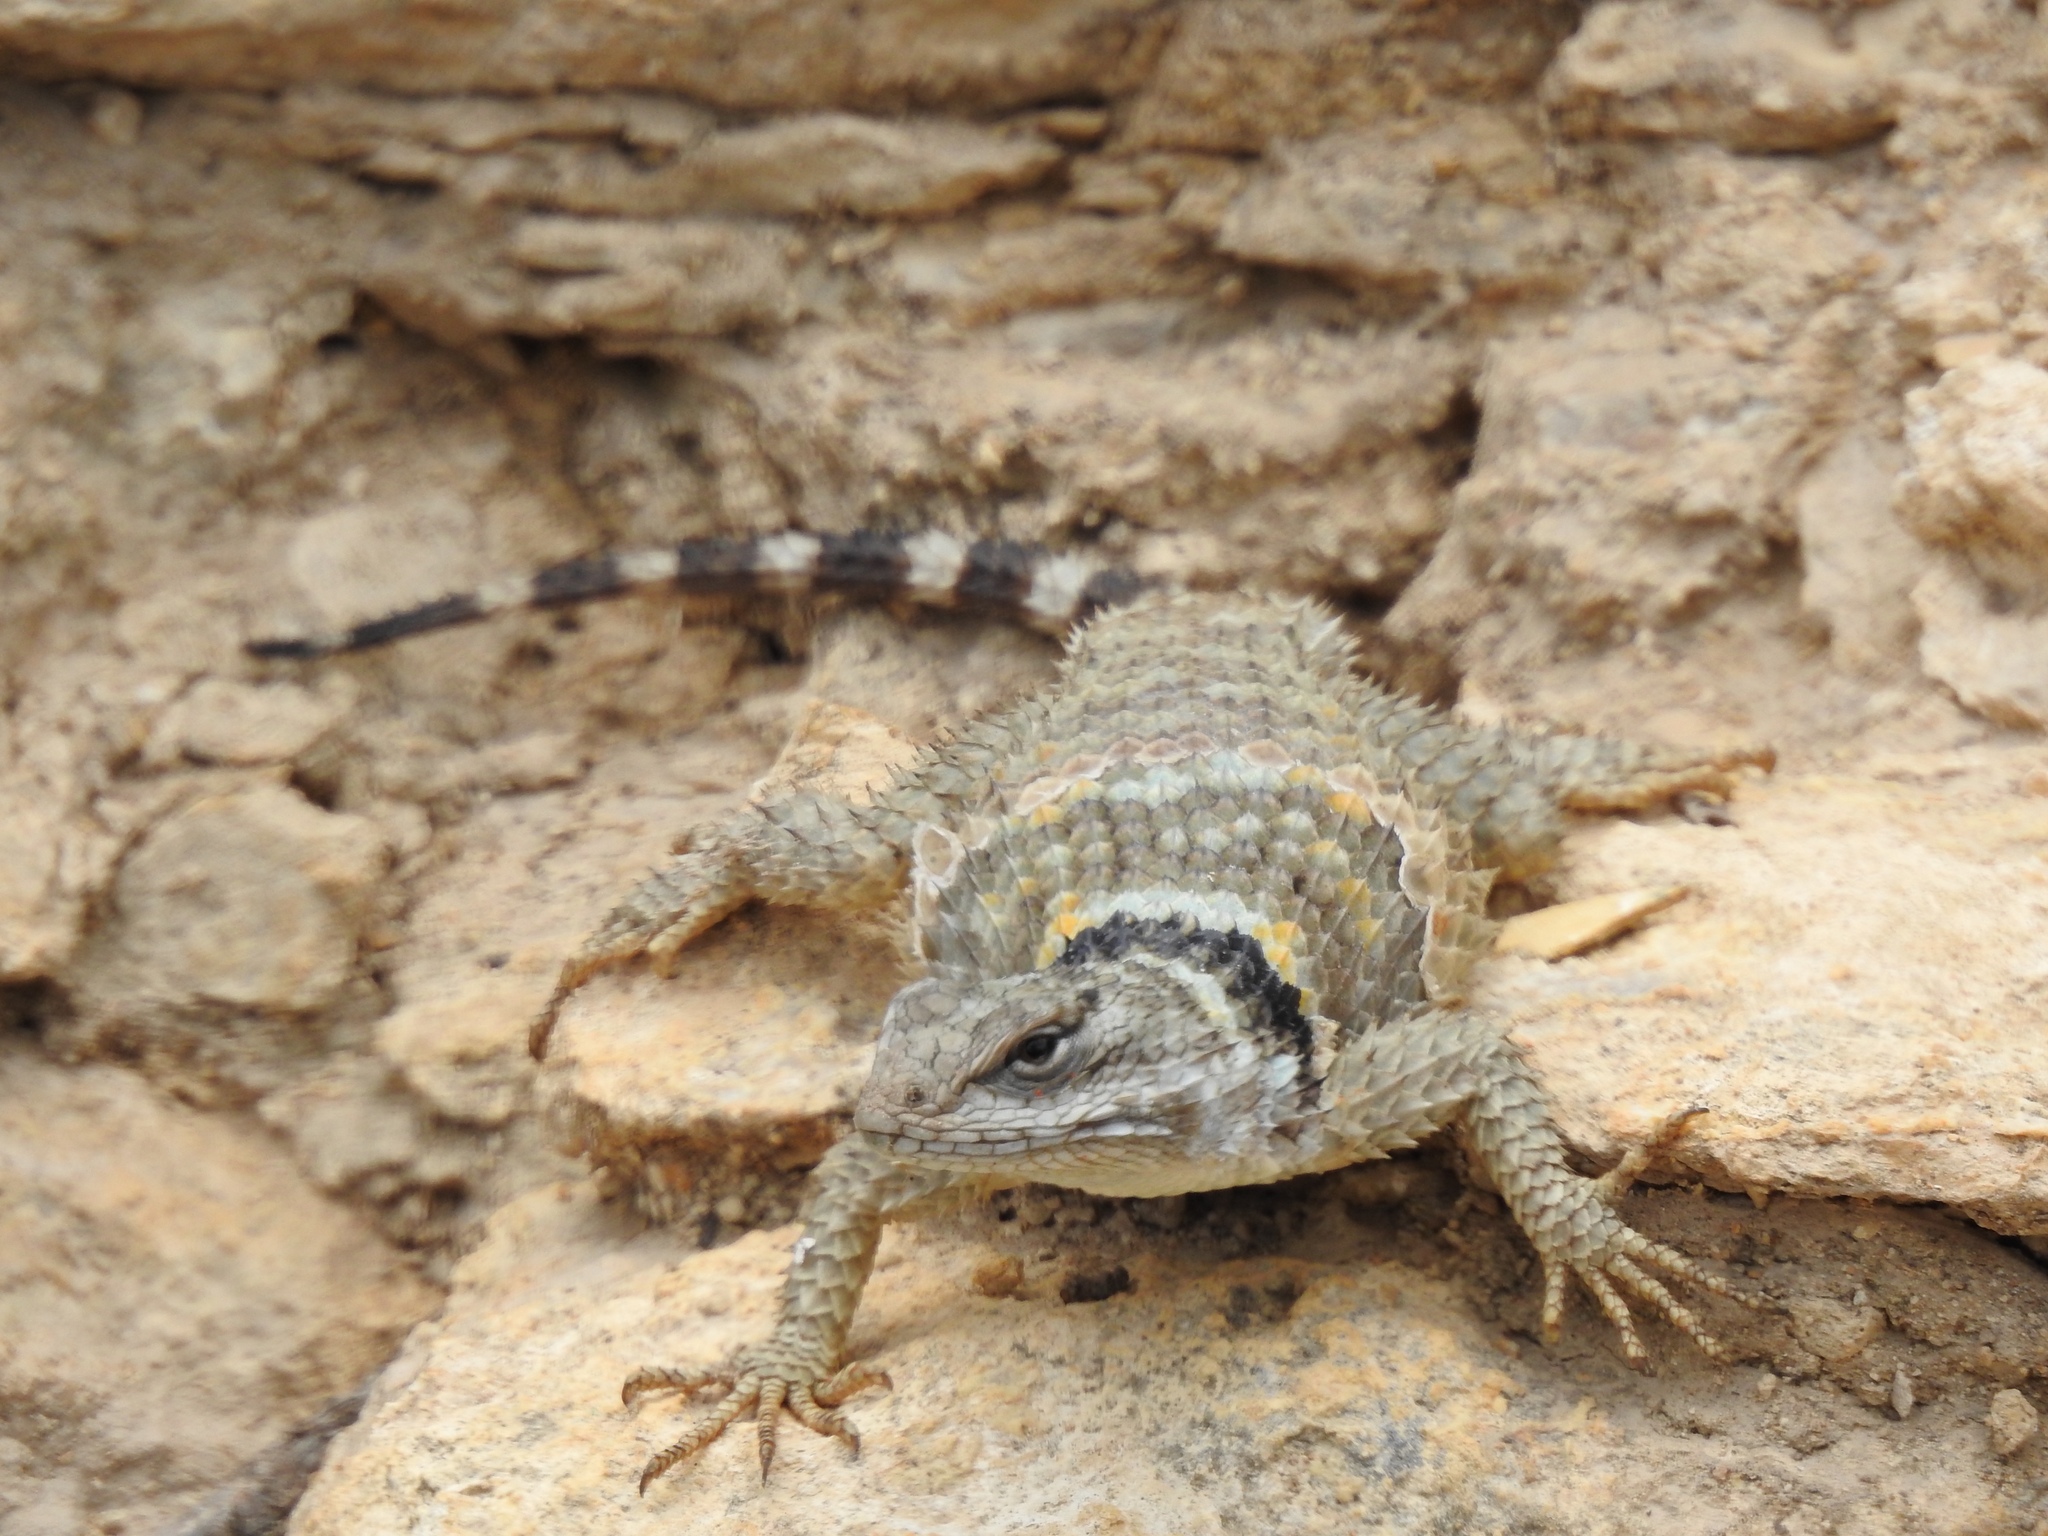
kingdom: Animalia
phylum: Chordata
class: Squamata
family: Phrynosomatidae
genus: Sceloporus
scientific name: Sceloporus poinsettii
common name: Crevice spiny lizard
